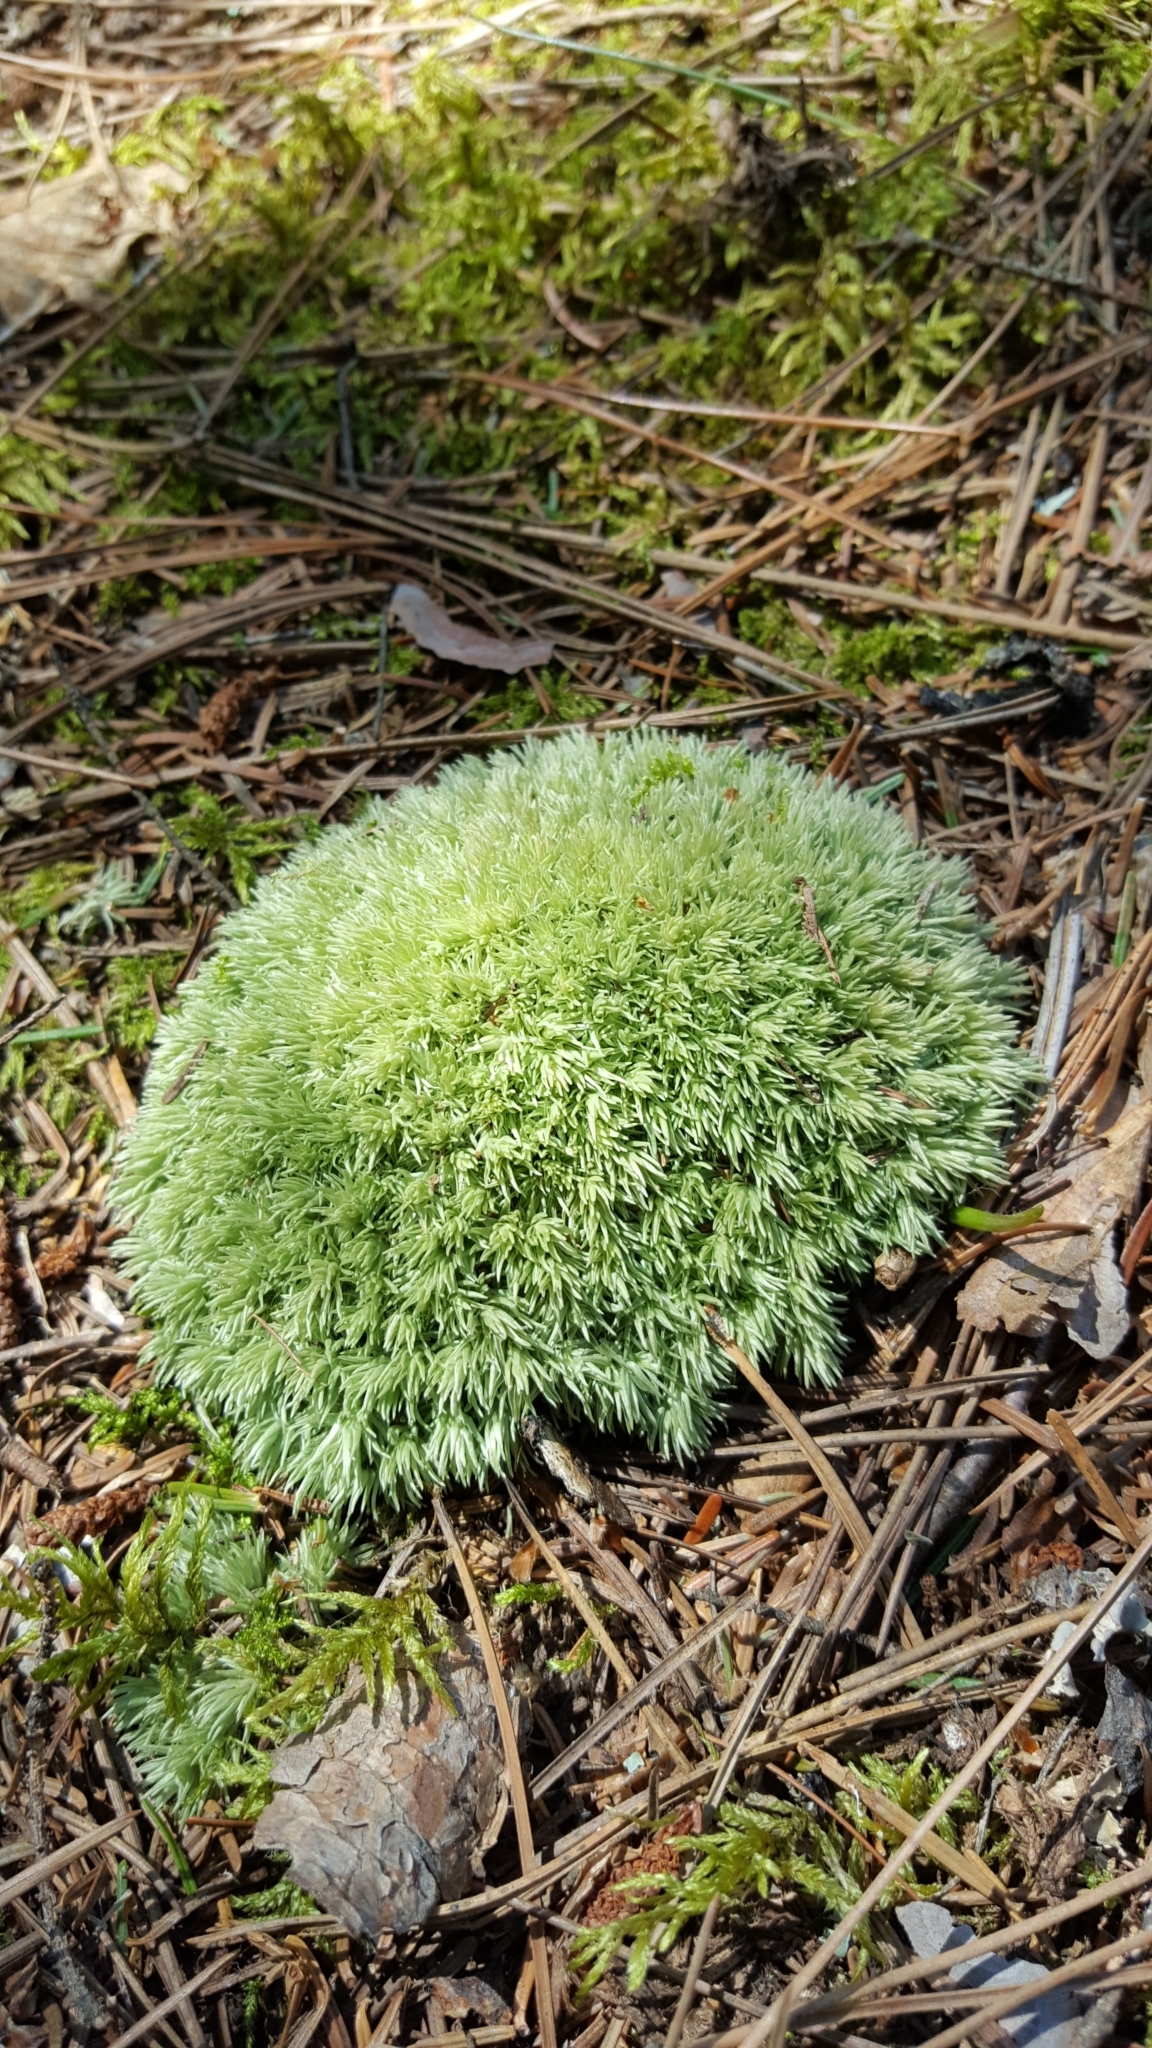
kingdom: Plantae
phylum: Bryophyta
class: Bryopsida
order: Dicranales
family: Leucobryaceae
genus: Leucobryum
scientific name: Leucobryum glaucum
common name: Large white-moss
